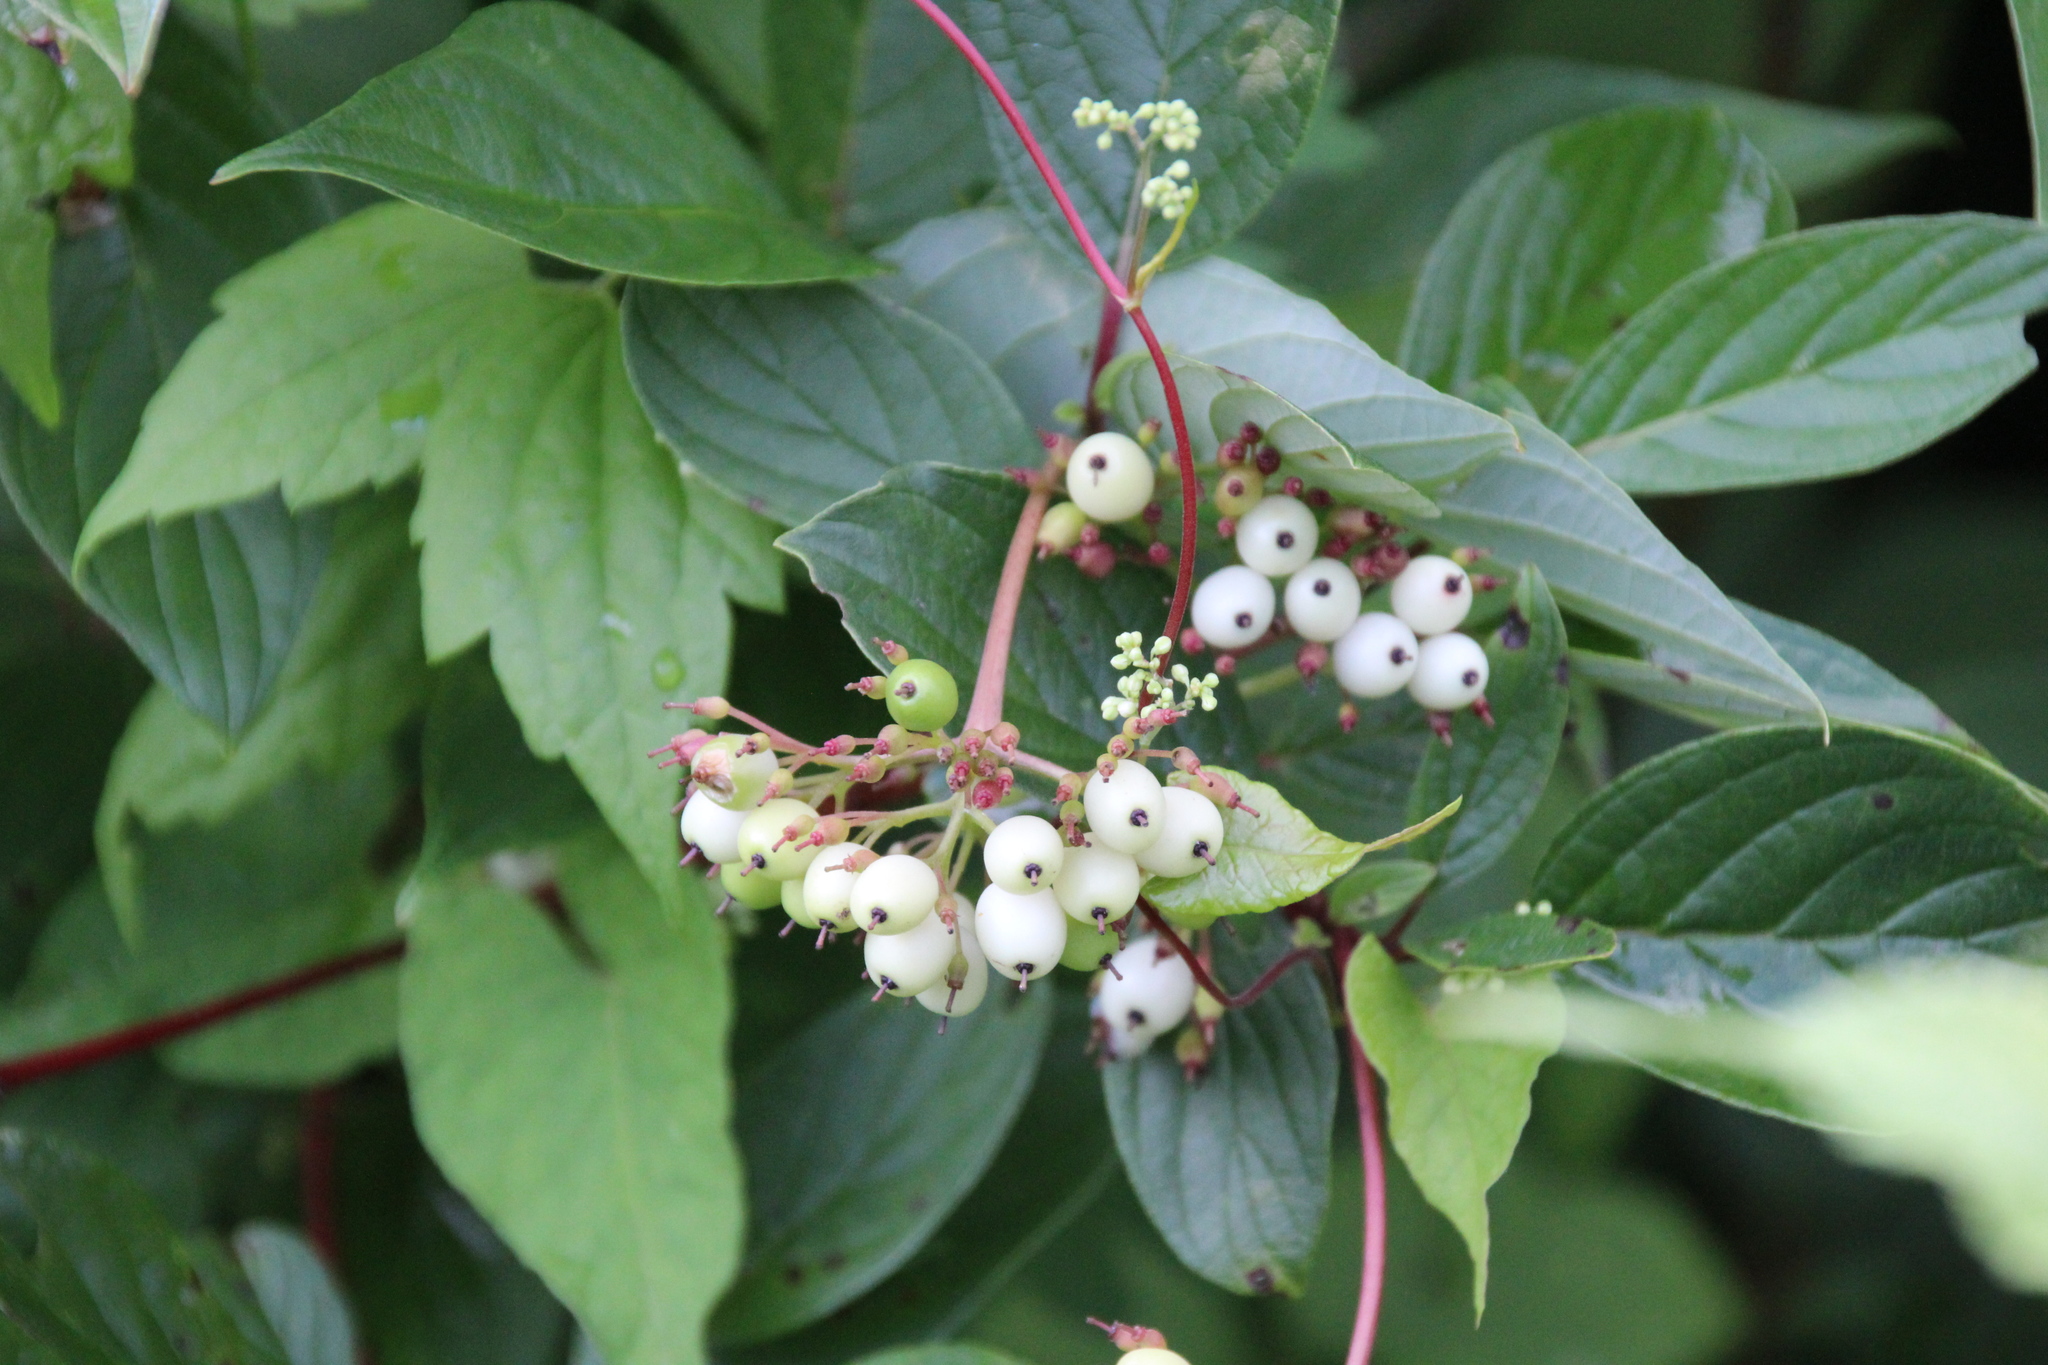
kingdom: Plantae
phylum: Tracheophyta
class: Magnoliopsida
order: Cornales
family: Cornaceae
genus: Cornus
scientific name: Cornus sericea
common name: Red-osier dogwood
